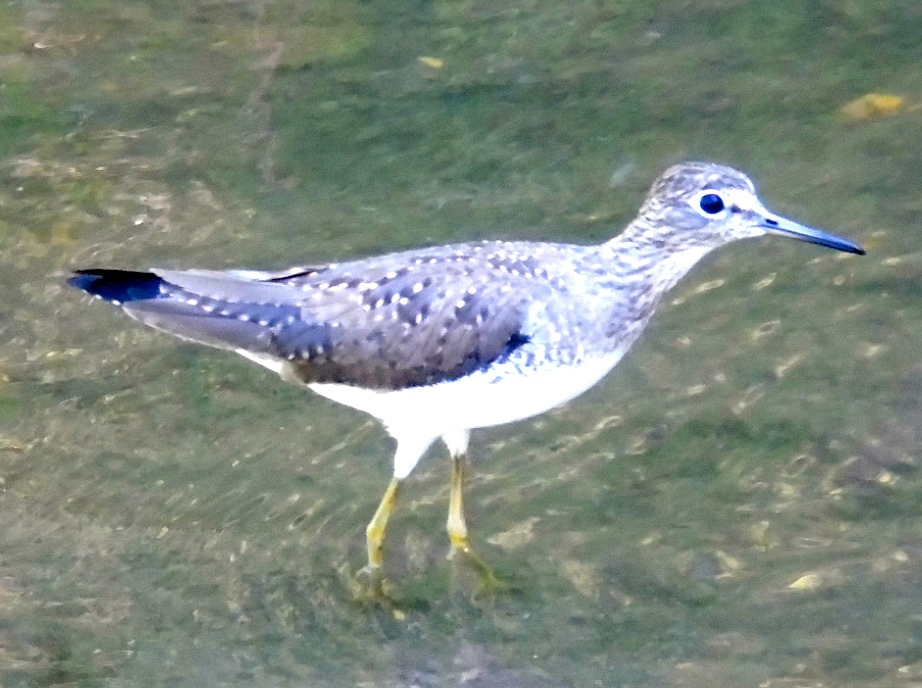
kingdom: Animalia
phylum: Chordata
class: Aves
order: Charadriiformes
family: Scolopacidae
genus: Tringa
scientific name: Tringa solitaria
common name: Solitary sandpiper
